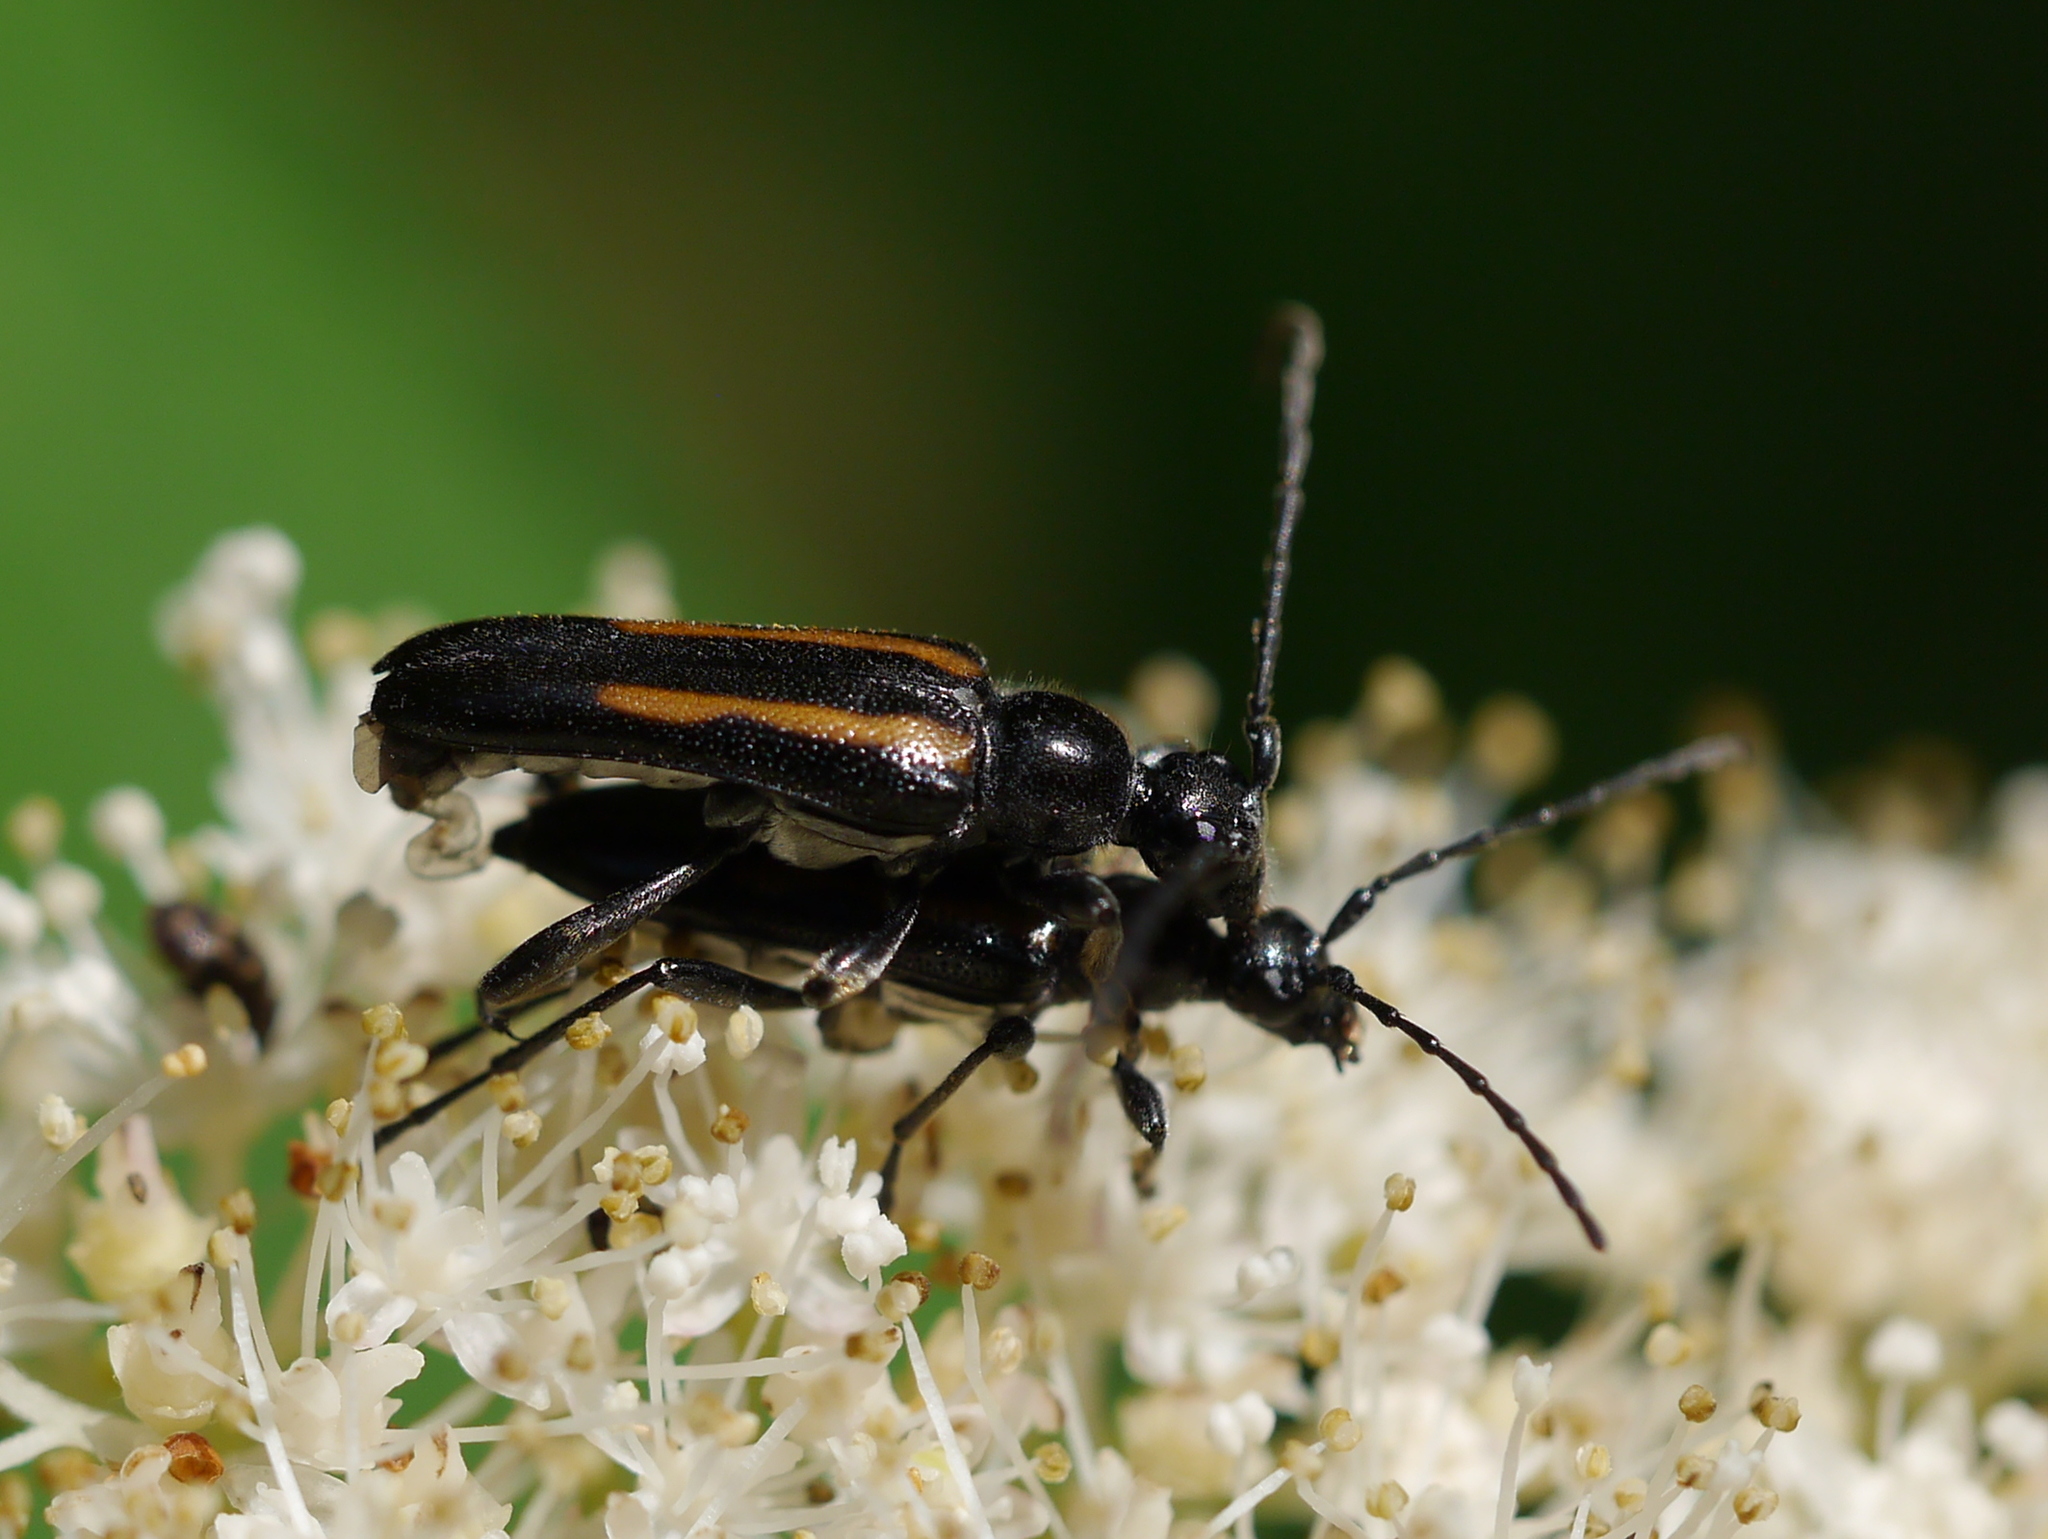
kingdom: Animalia
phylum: Arthropoda
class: Insecta
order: Coleoptera
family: Cerambycidae
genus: Strangalepta
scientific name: Strangalepta abbreviata
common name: Strangalepta flower longhorn beetle
